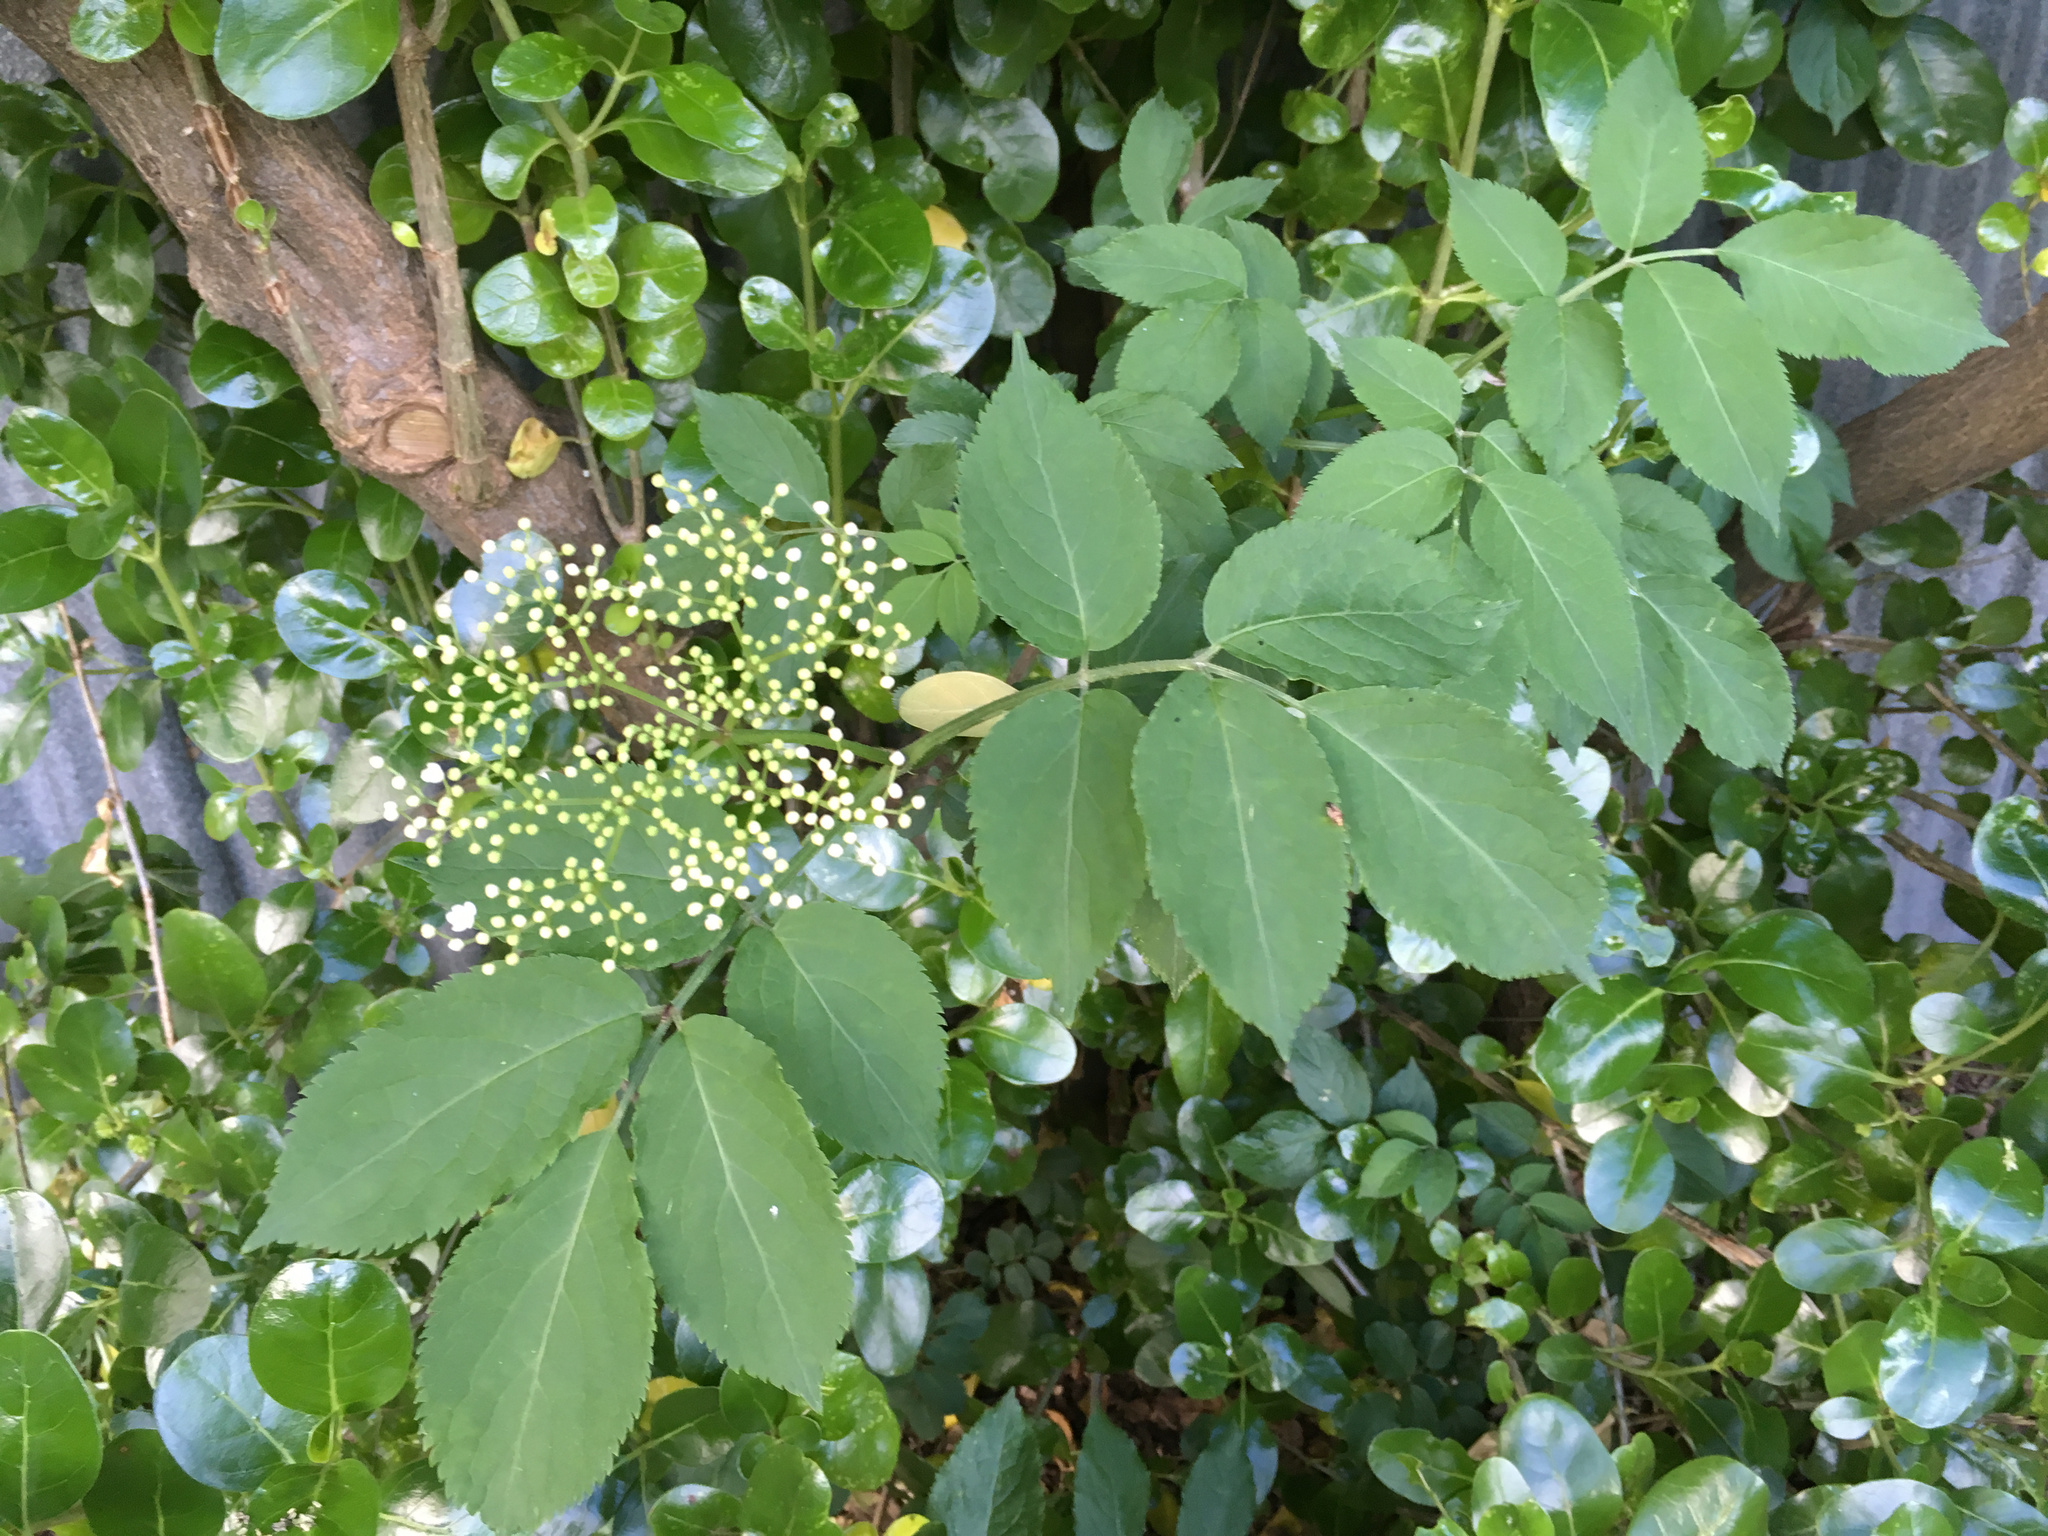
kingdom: Plantae
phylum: Tracheophyta
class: Magnoliopsida
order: Dipsacales
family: Viburnaceae
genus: Sambucus
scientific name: Sambucus nigra
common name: Elder
